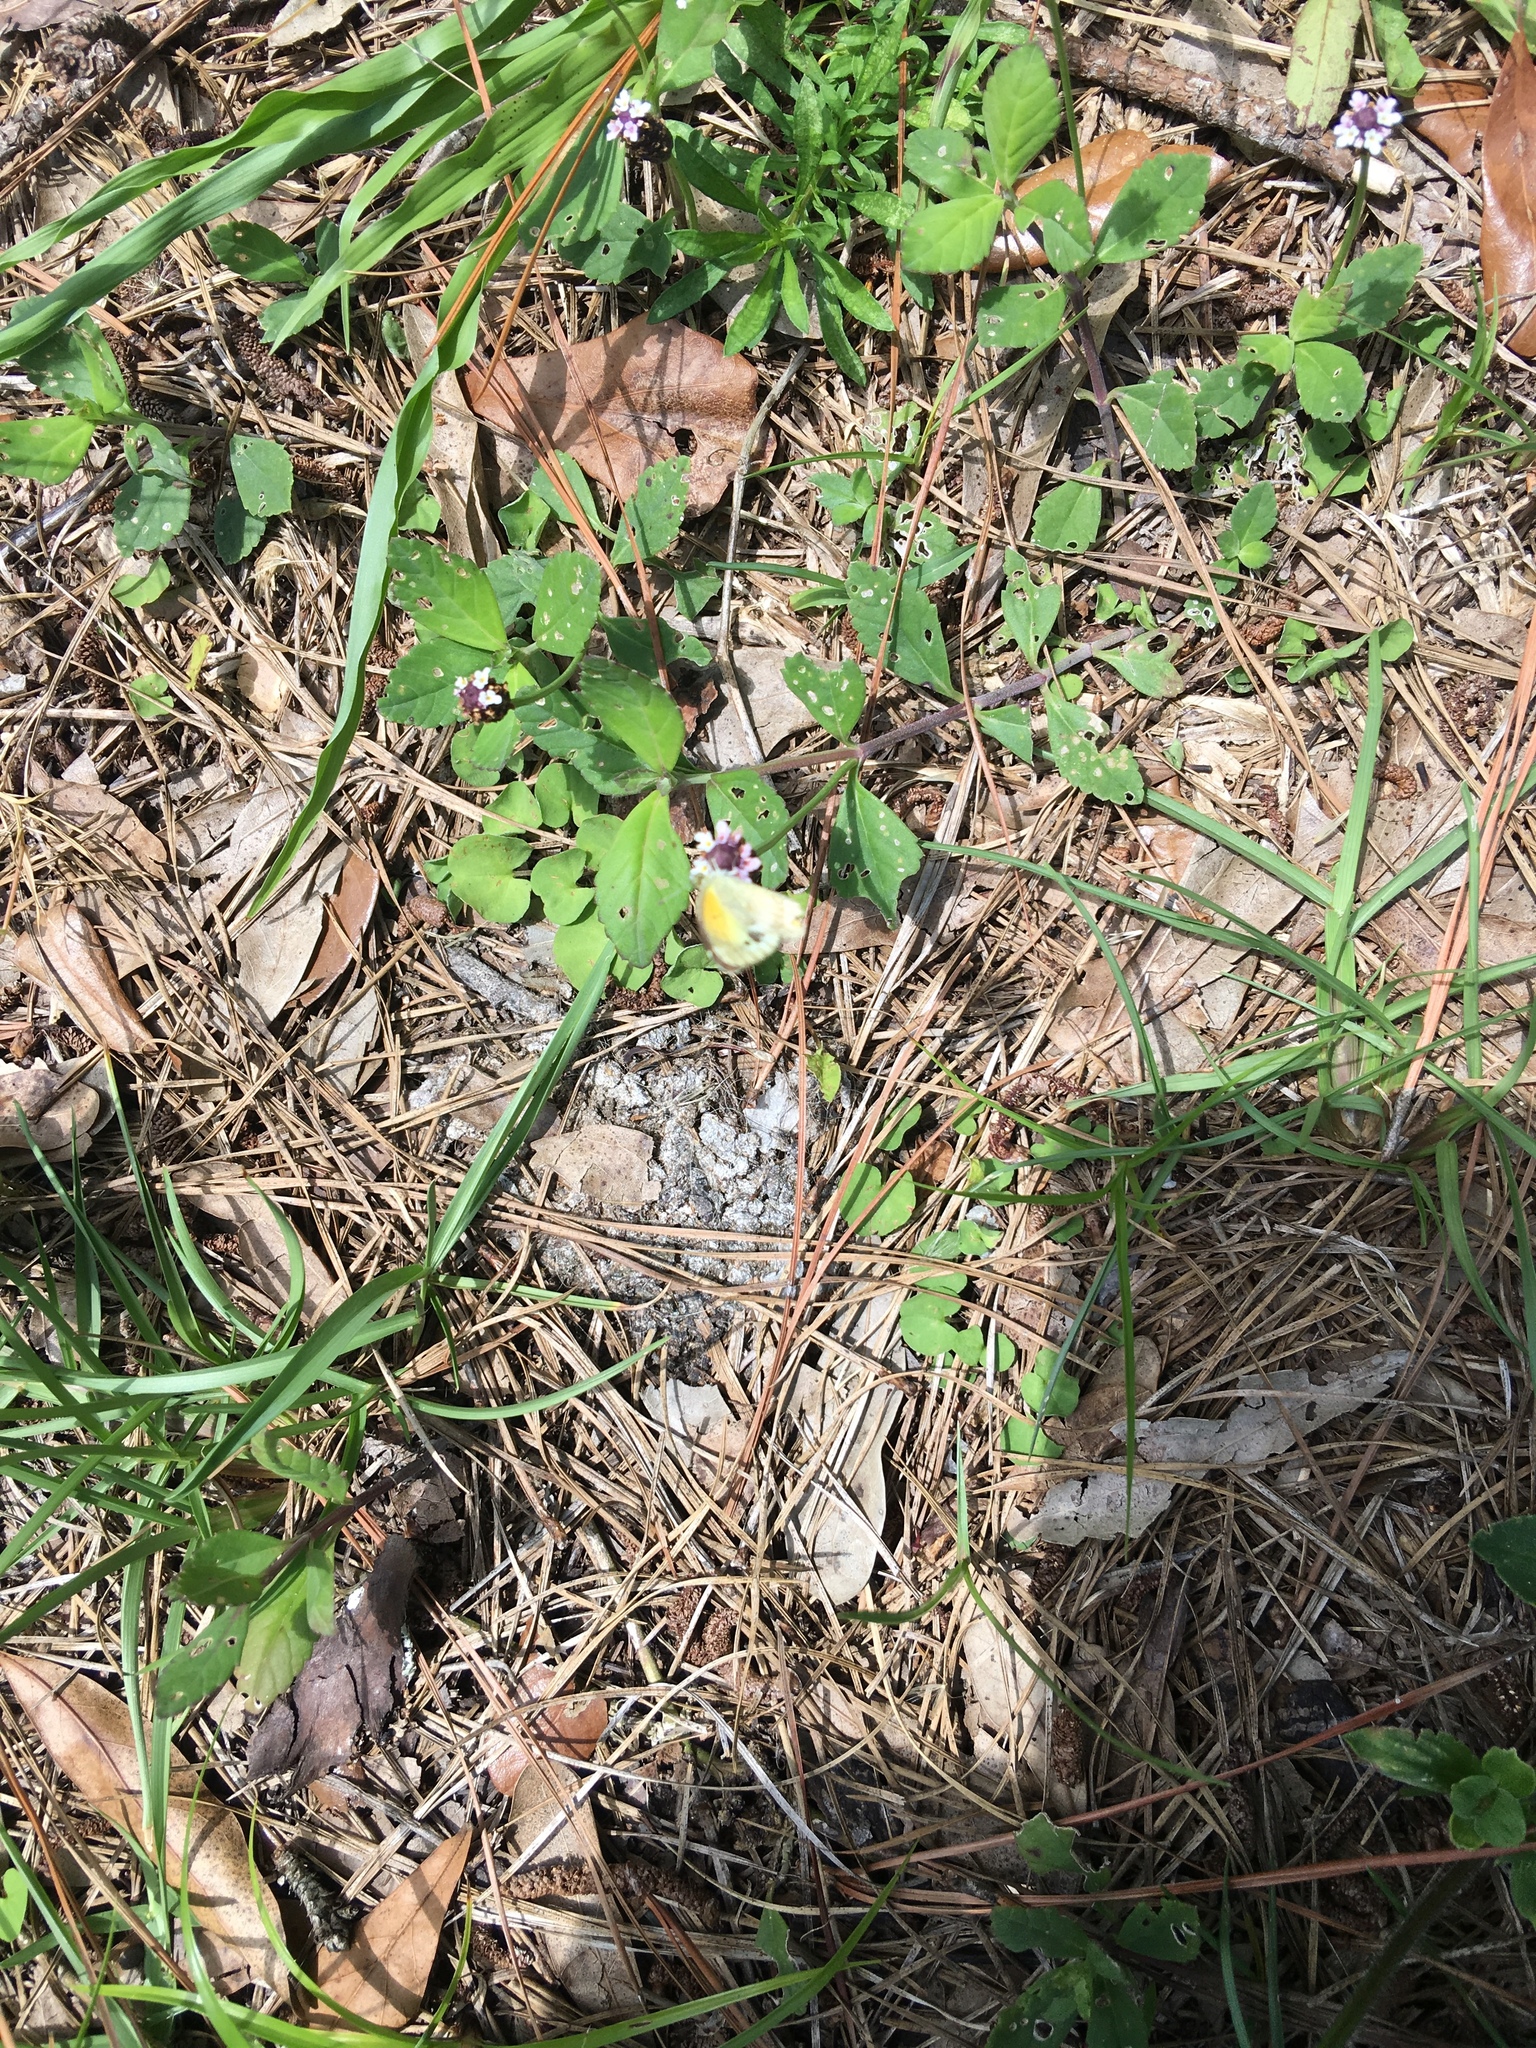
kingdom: Animalia
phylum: Arthropoda
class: Insecta
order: Lepidoptera
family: Pieridae
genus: Nathalis
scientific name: Nathalis iole
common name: Dainty sulphur
